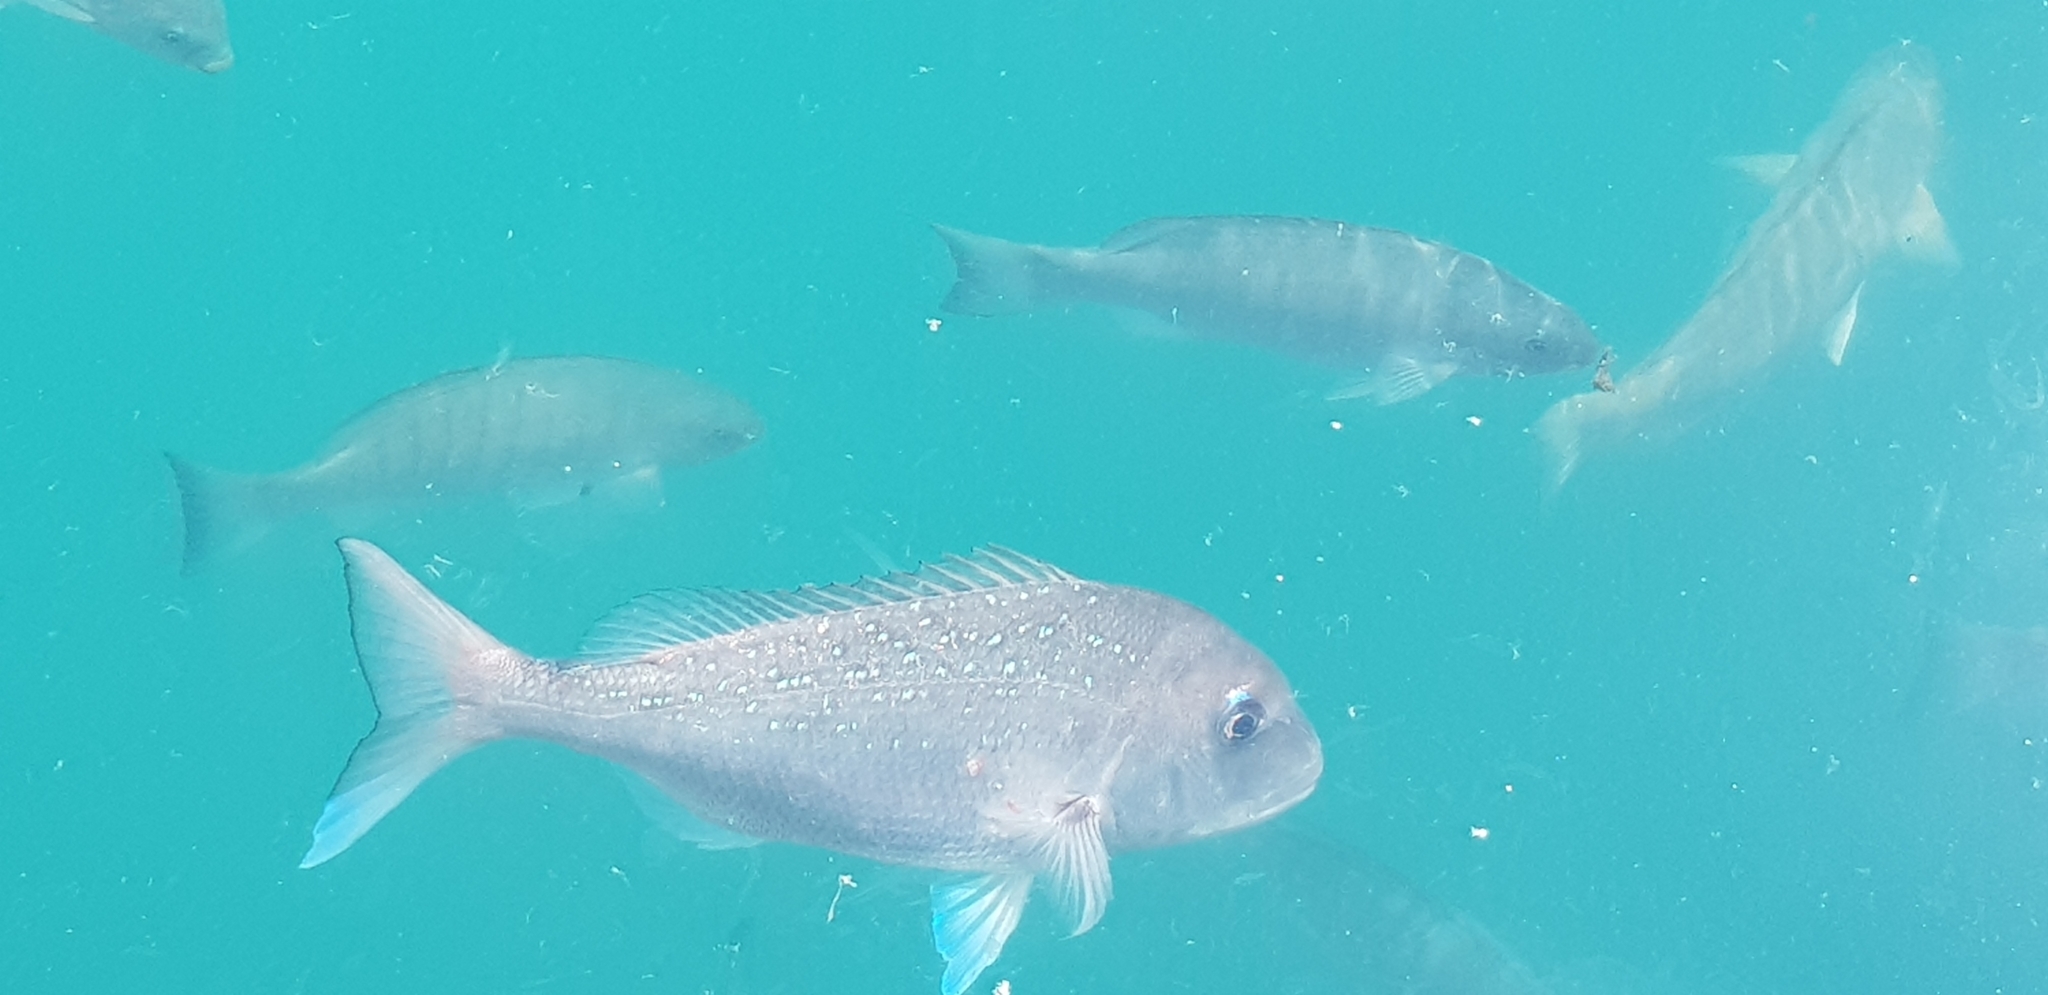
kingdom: Animalia
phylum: Chordata
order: Perciformes
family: Sparidae
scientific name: Sparidae
